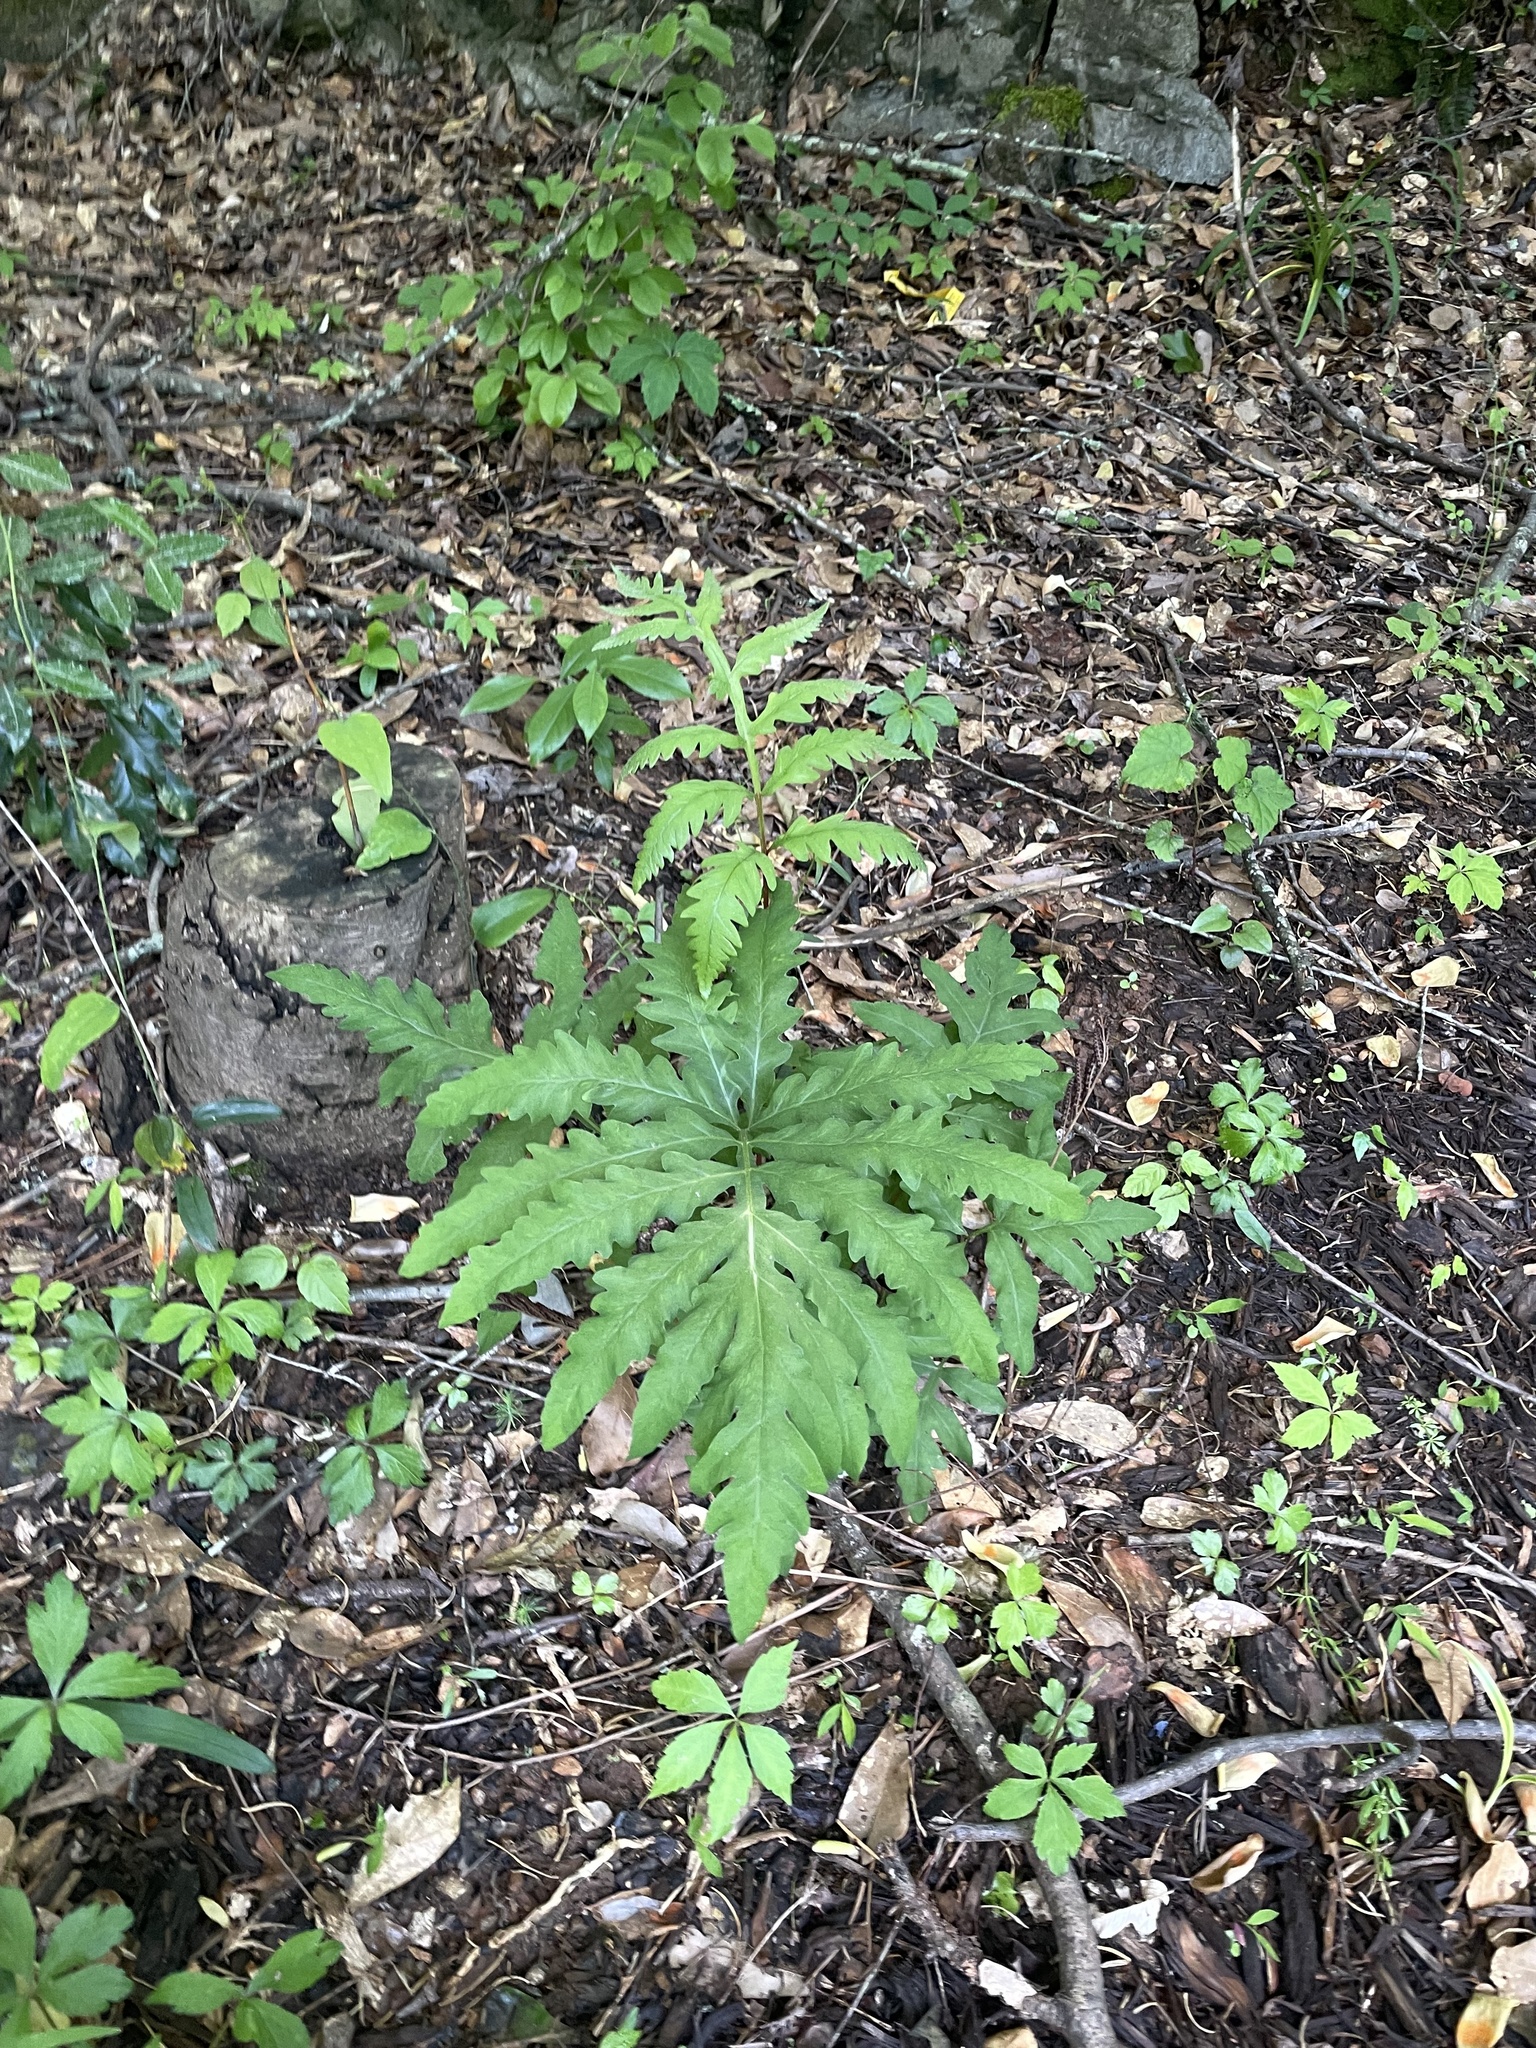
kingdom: Plantae
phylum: Tracheophyta
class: Polypodiopsida
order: Polypodiales
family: Onocleaceae
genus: Onoclea
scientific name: Onoclea sensibilis
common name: Sensitive fern
